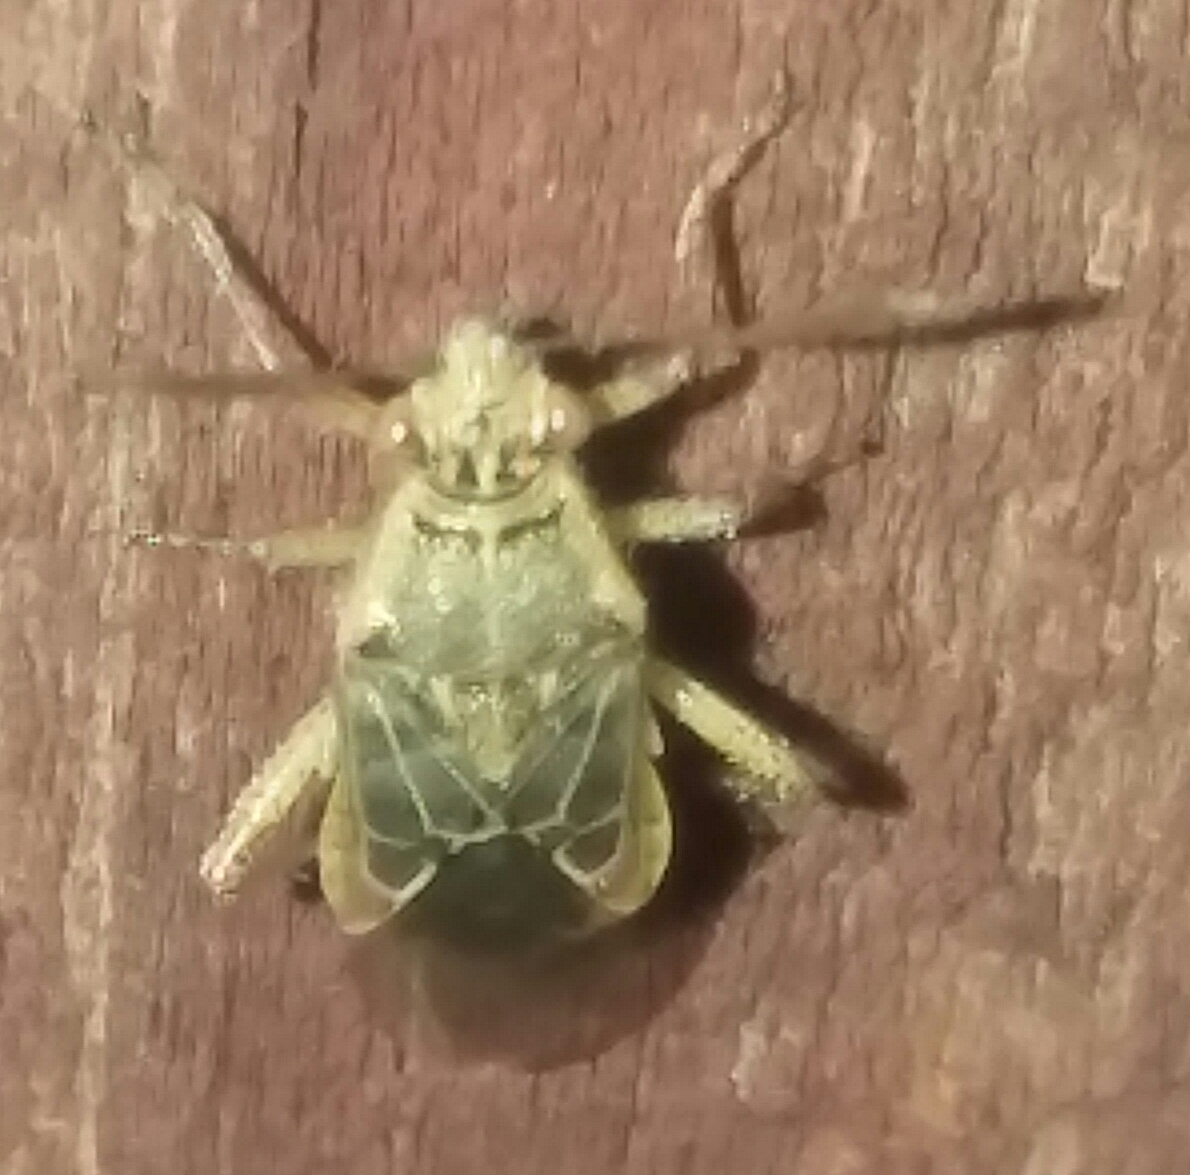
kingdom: Animalia
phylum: Arthropoda
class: Insecta
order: Hemiptera
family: Rhopalidae
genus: Liorhyssus
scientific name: Liorhyssus hyalinus
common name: Scentless plant bug
